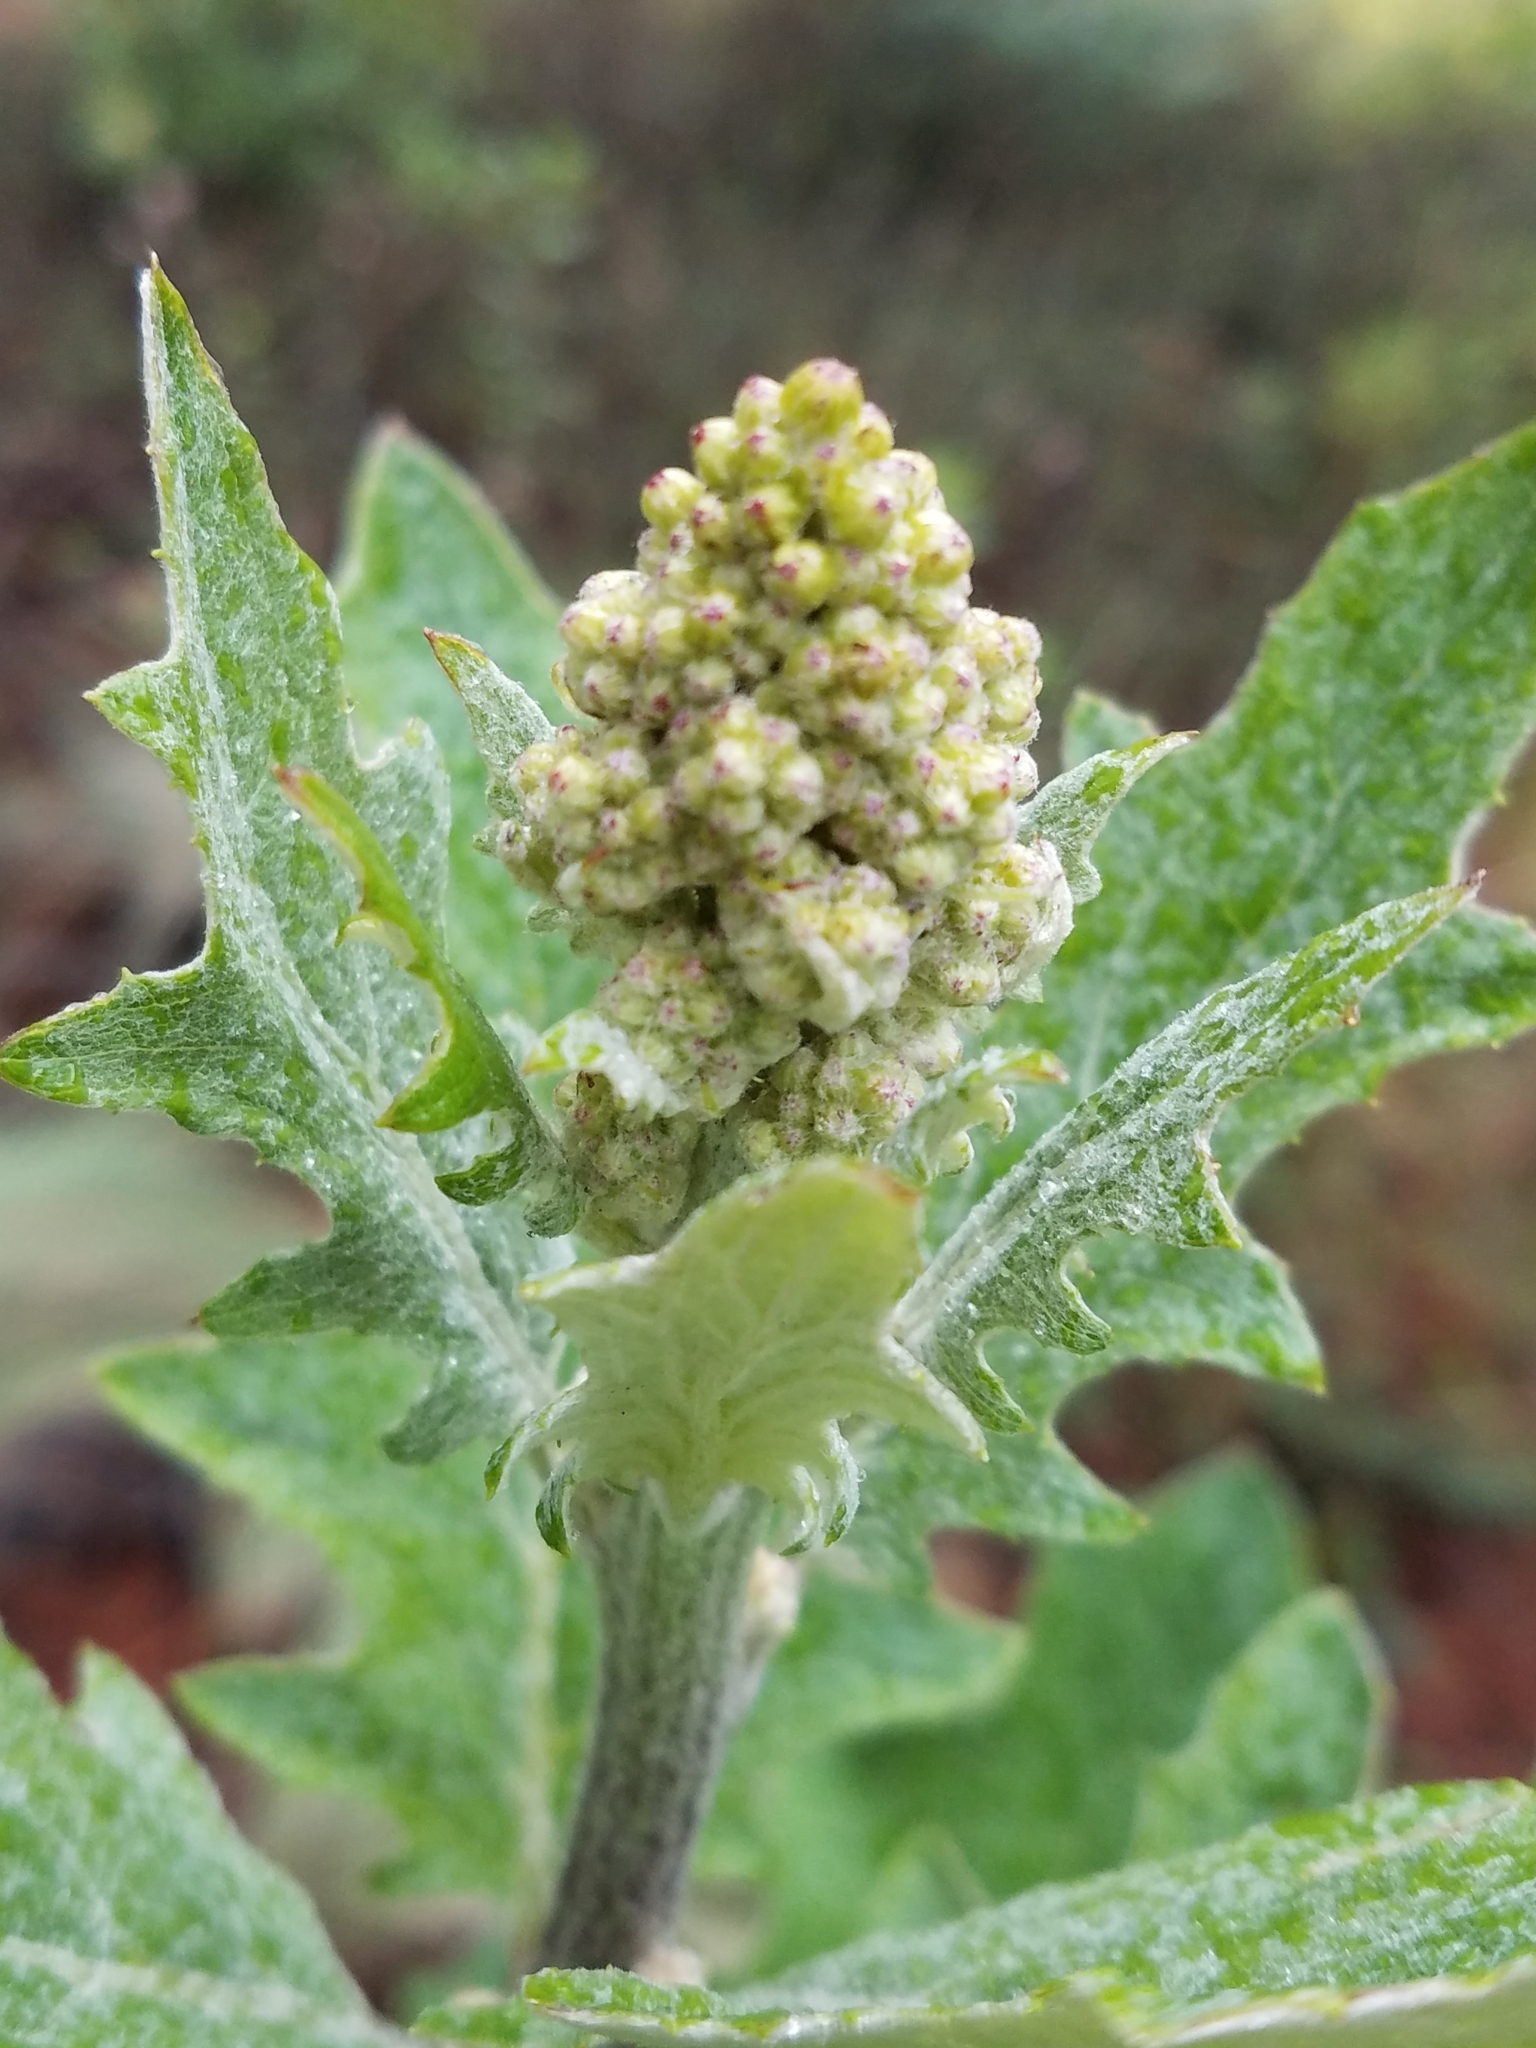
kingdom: Plantae
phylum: Tracheophyta
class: Magnoliopsida
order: Asterales
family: Asteraceae
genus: Roldana
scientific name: Roldana candicans
